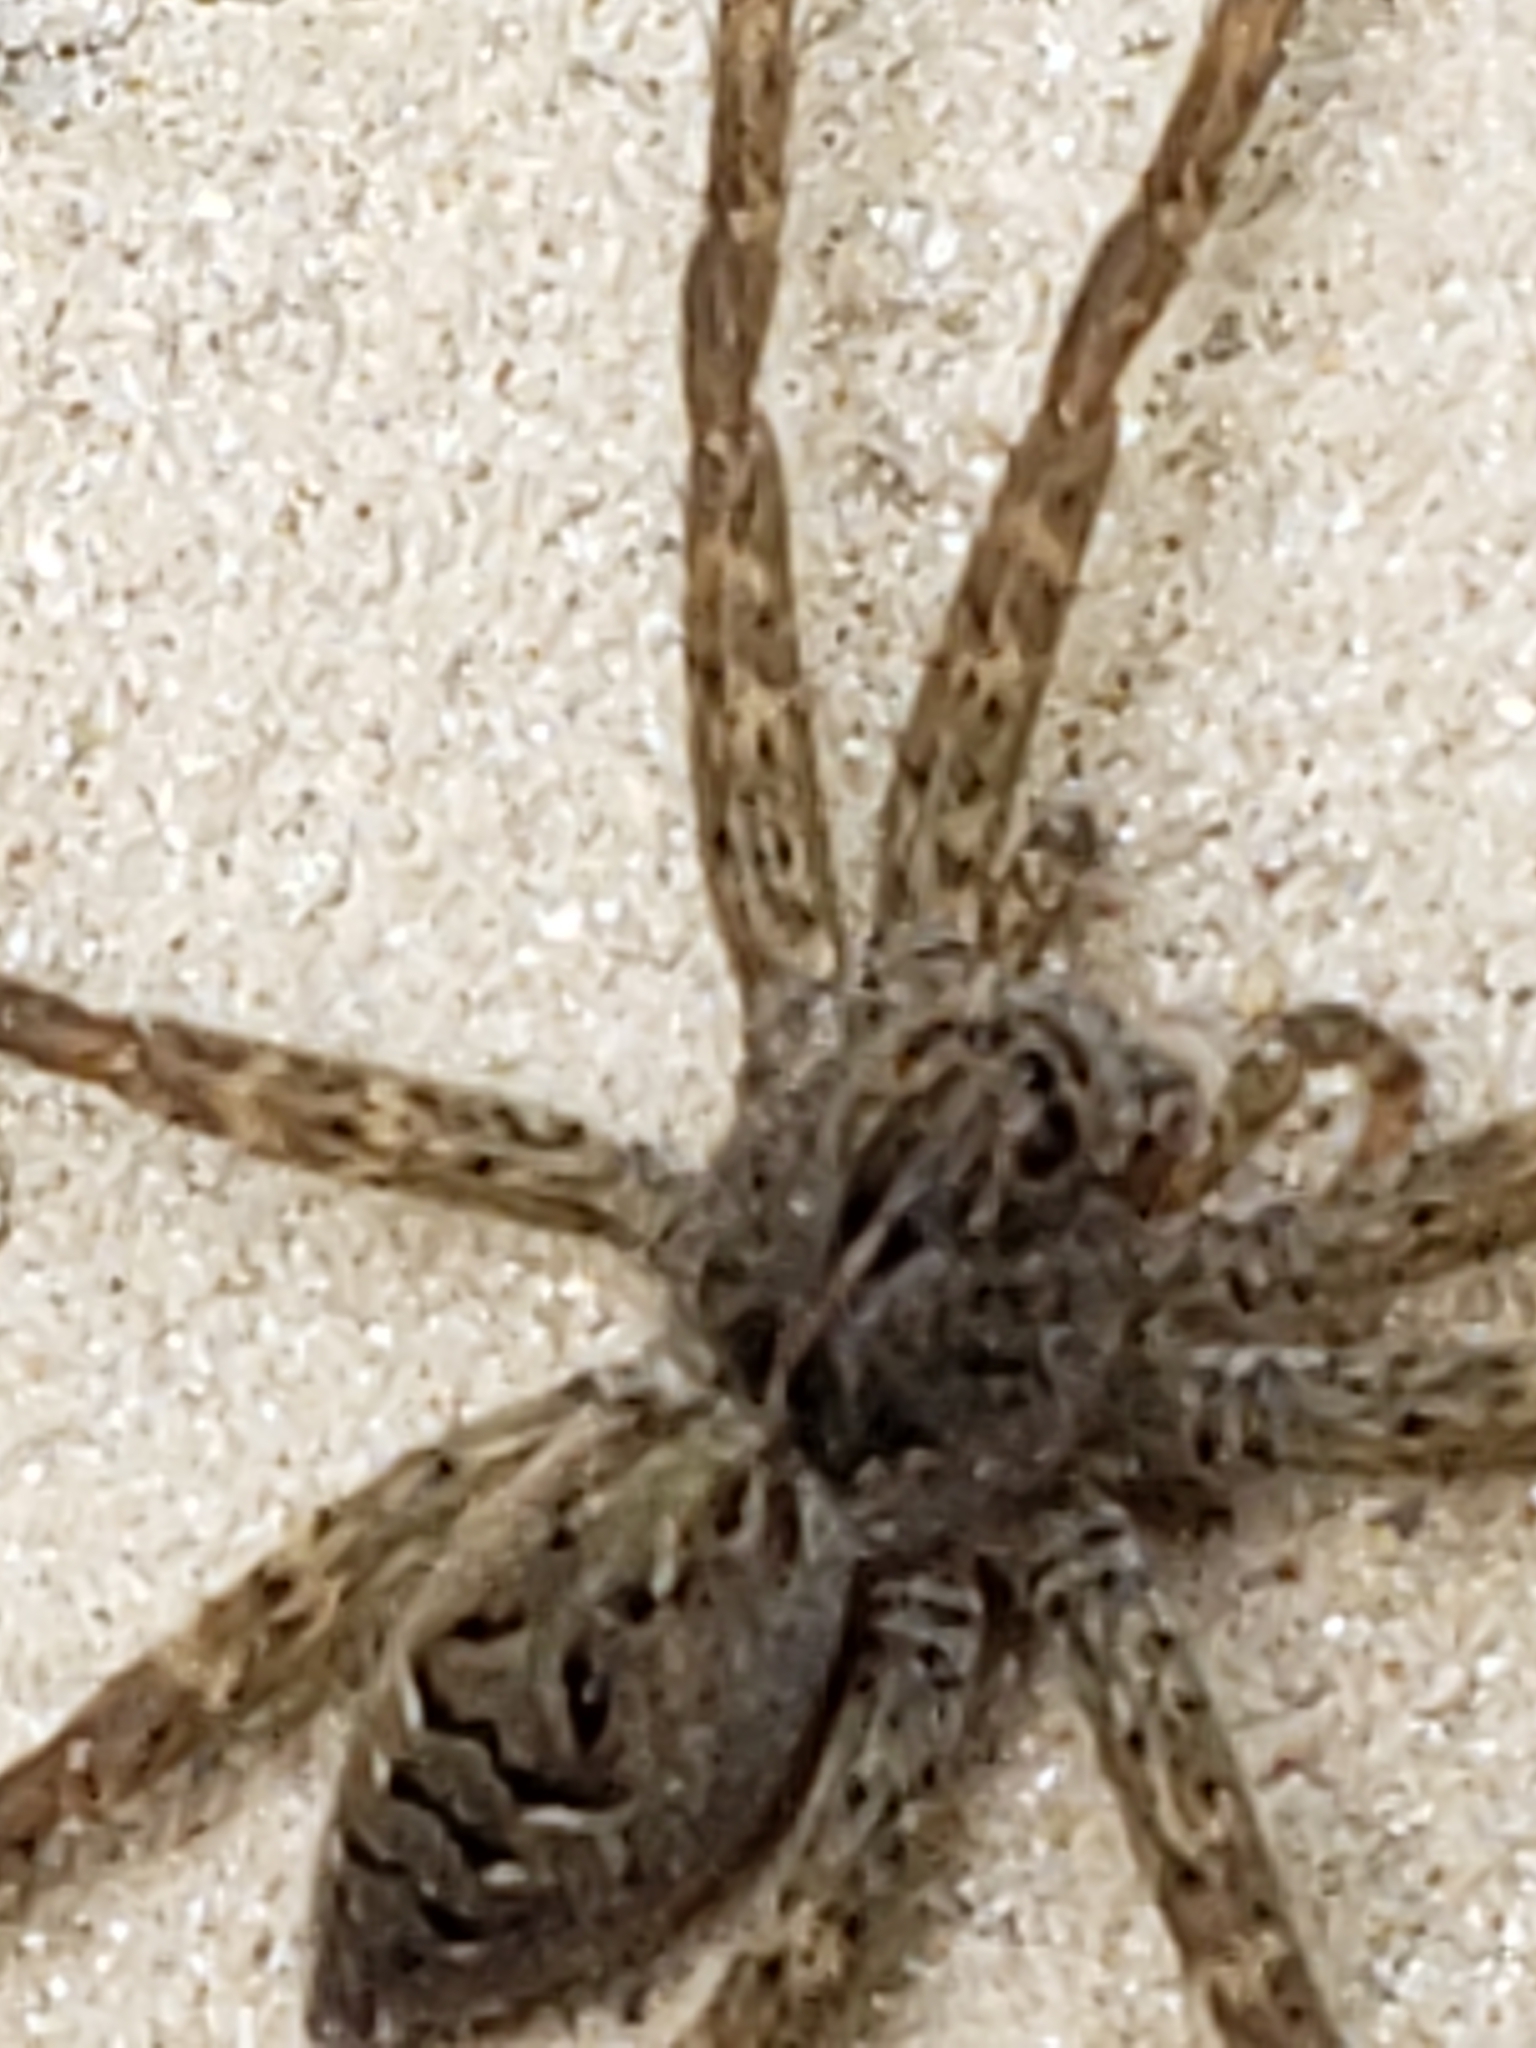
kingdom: Animalia
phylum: Arthropoda
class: Arachnida
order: Araneae
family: Pisauridae
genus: Dolomedes
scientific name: Dolomedes vittatus
